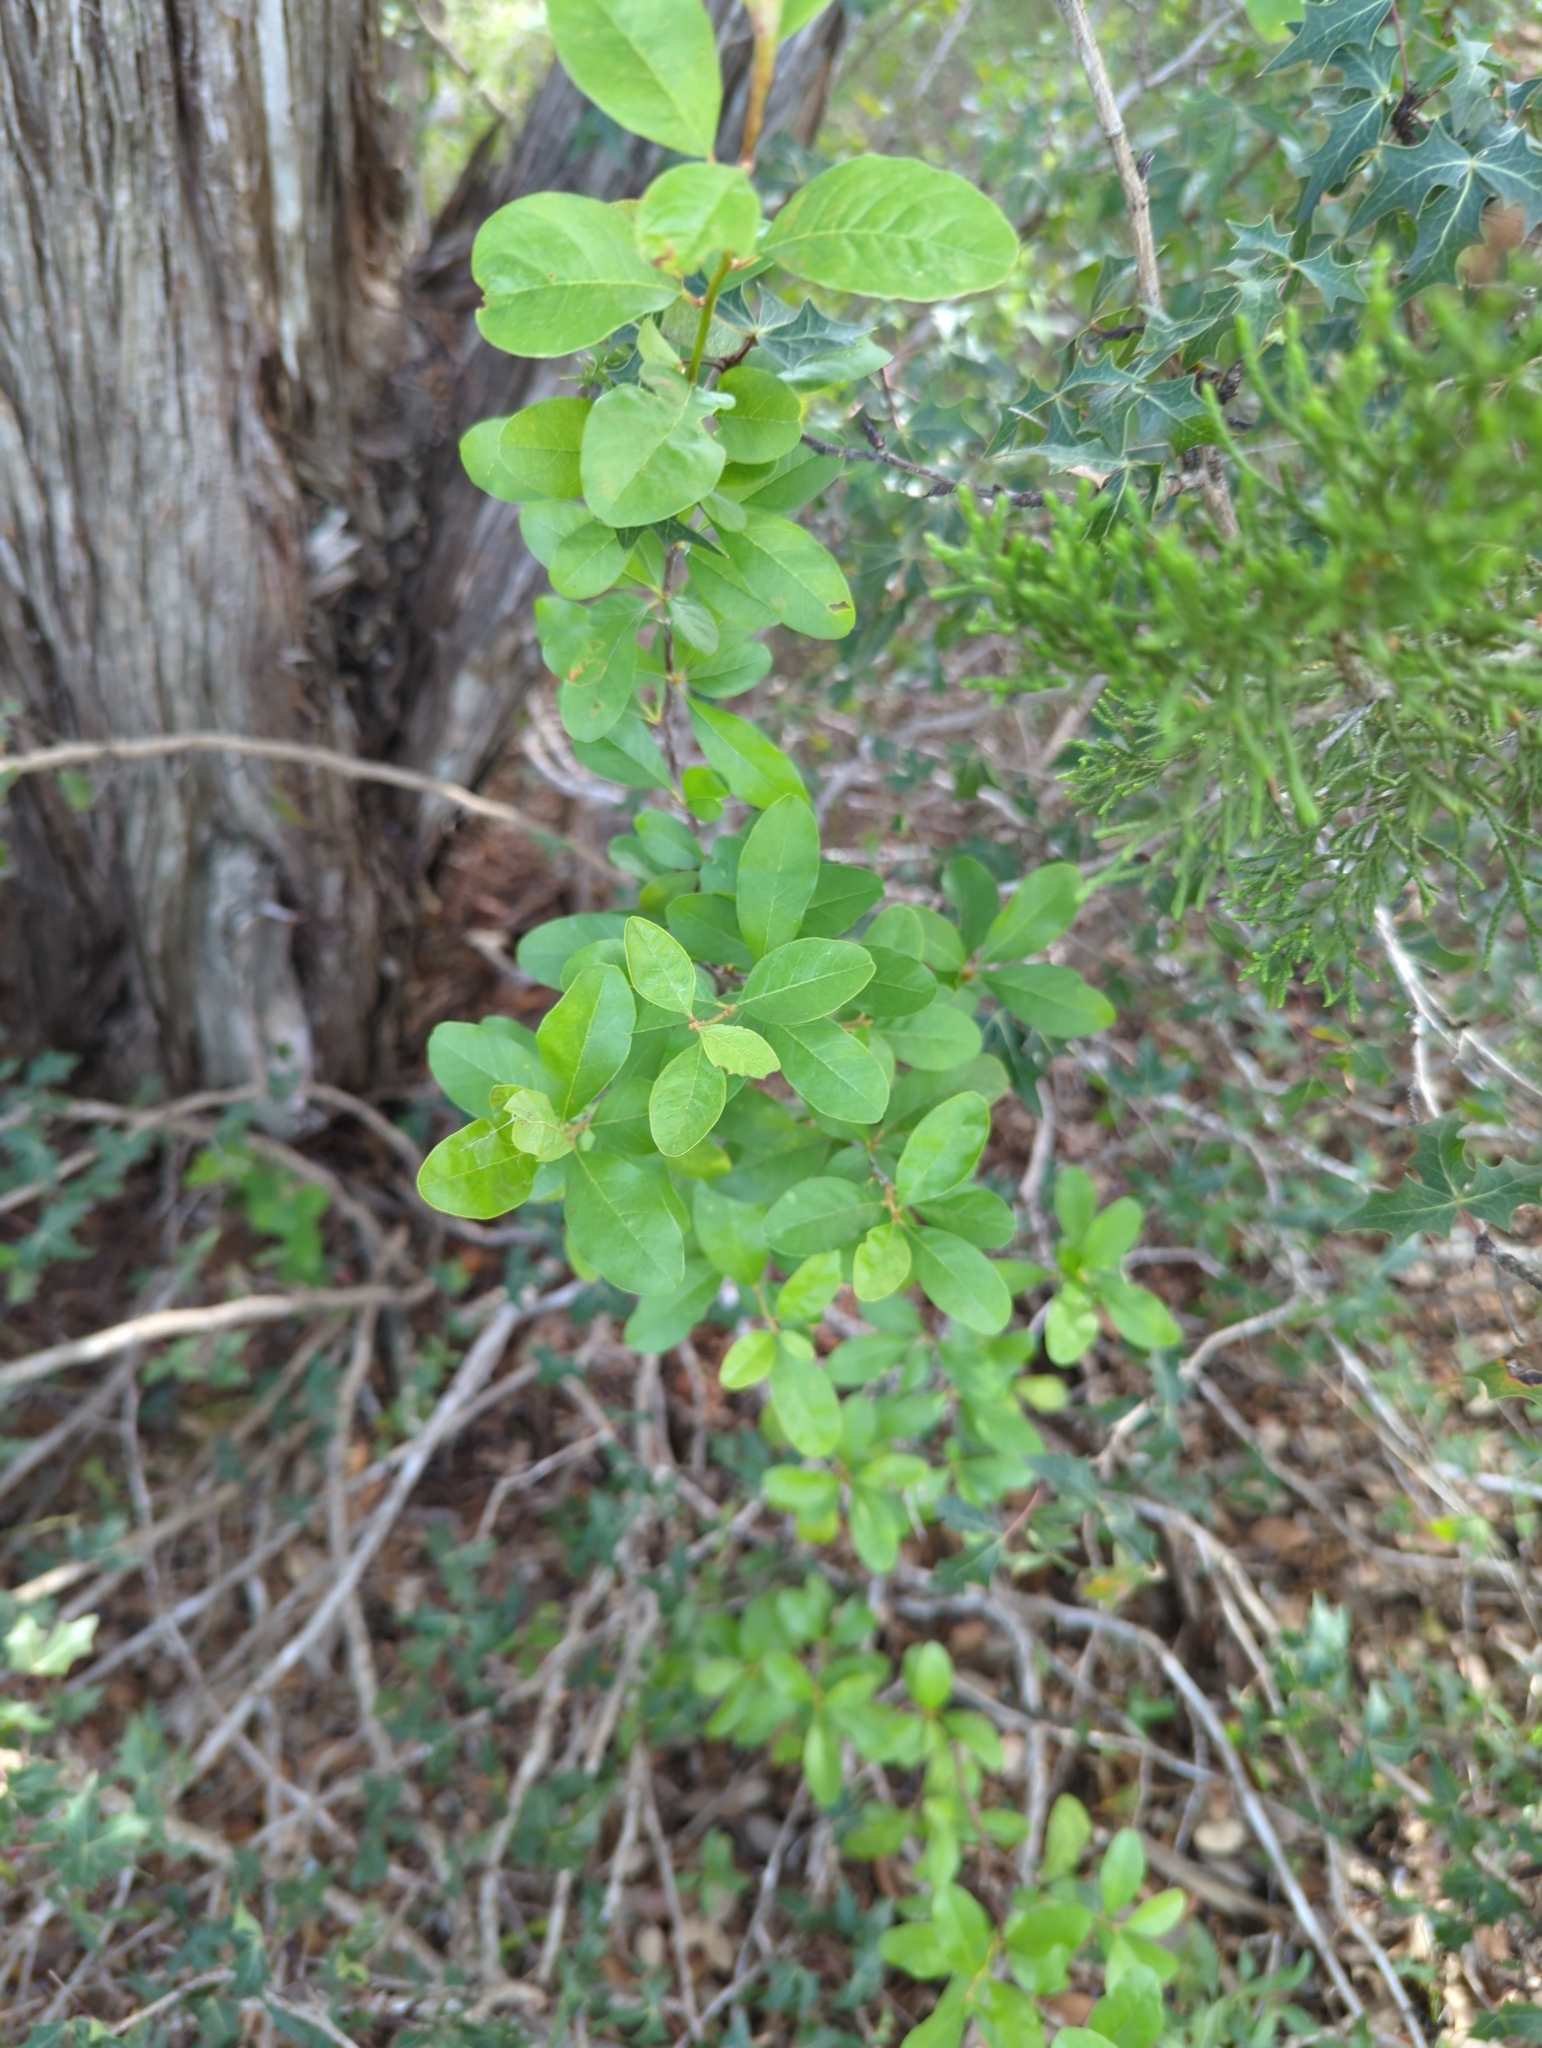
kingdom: Plantae
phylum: Tracheophyta
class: Magnoliopsida
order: Aquifoliales
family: Aquifoliaceae
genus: Ilex
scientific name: Ilex vomitoria
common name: Yaupon holly
